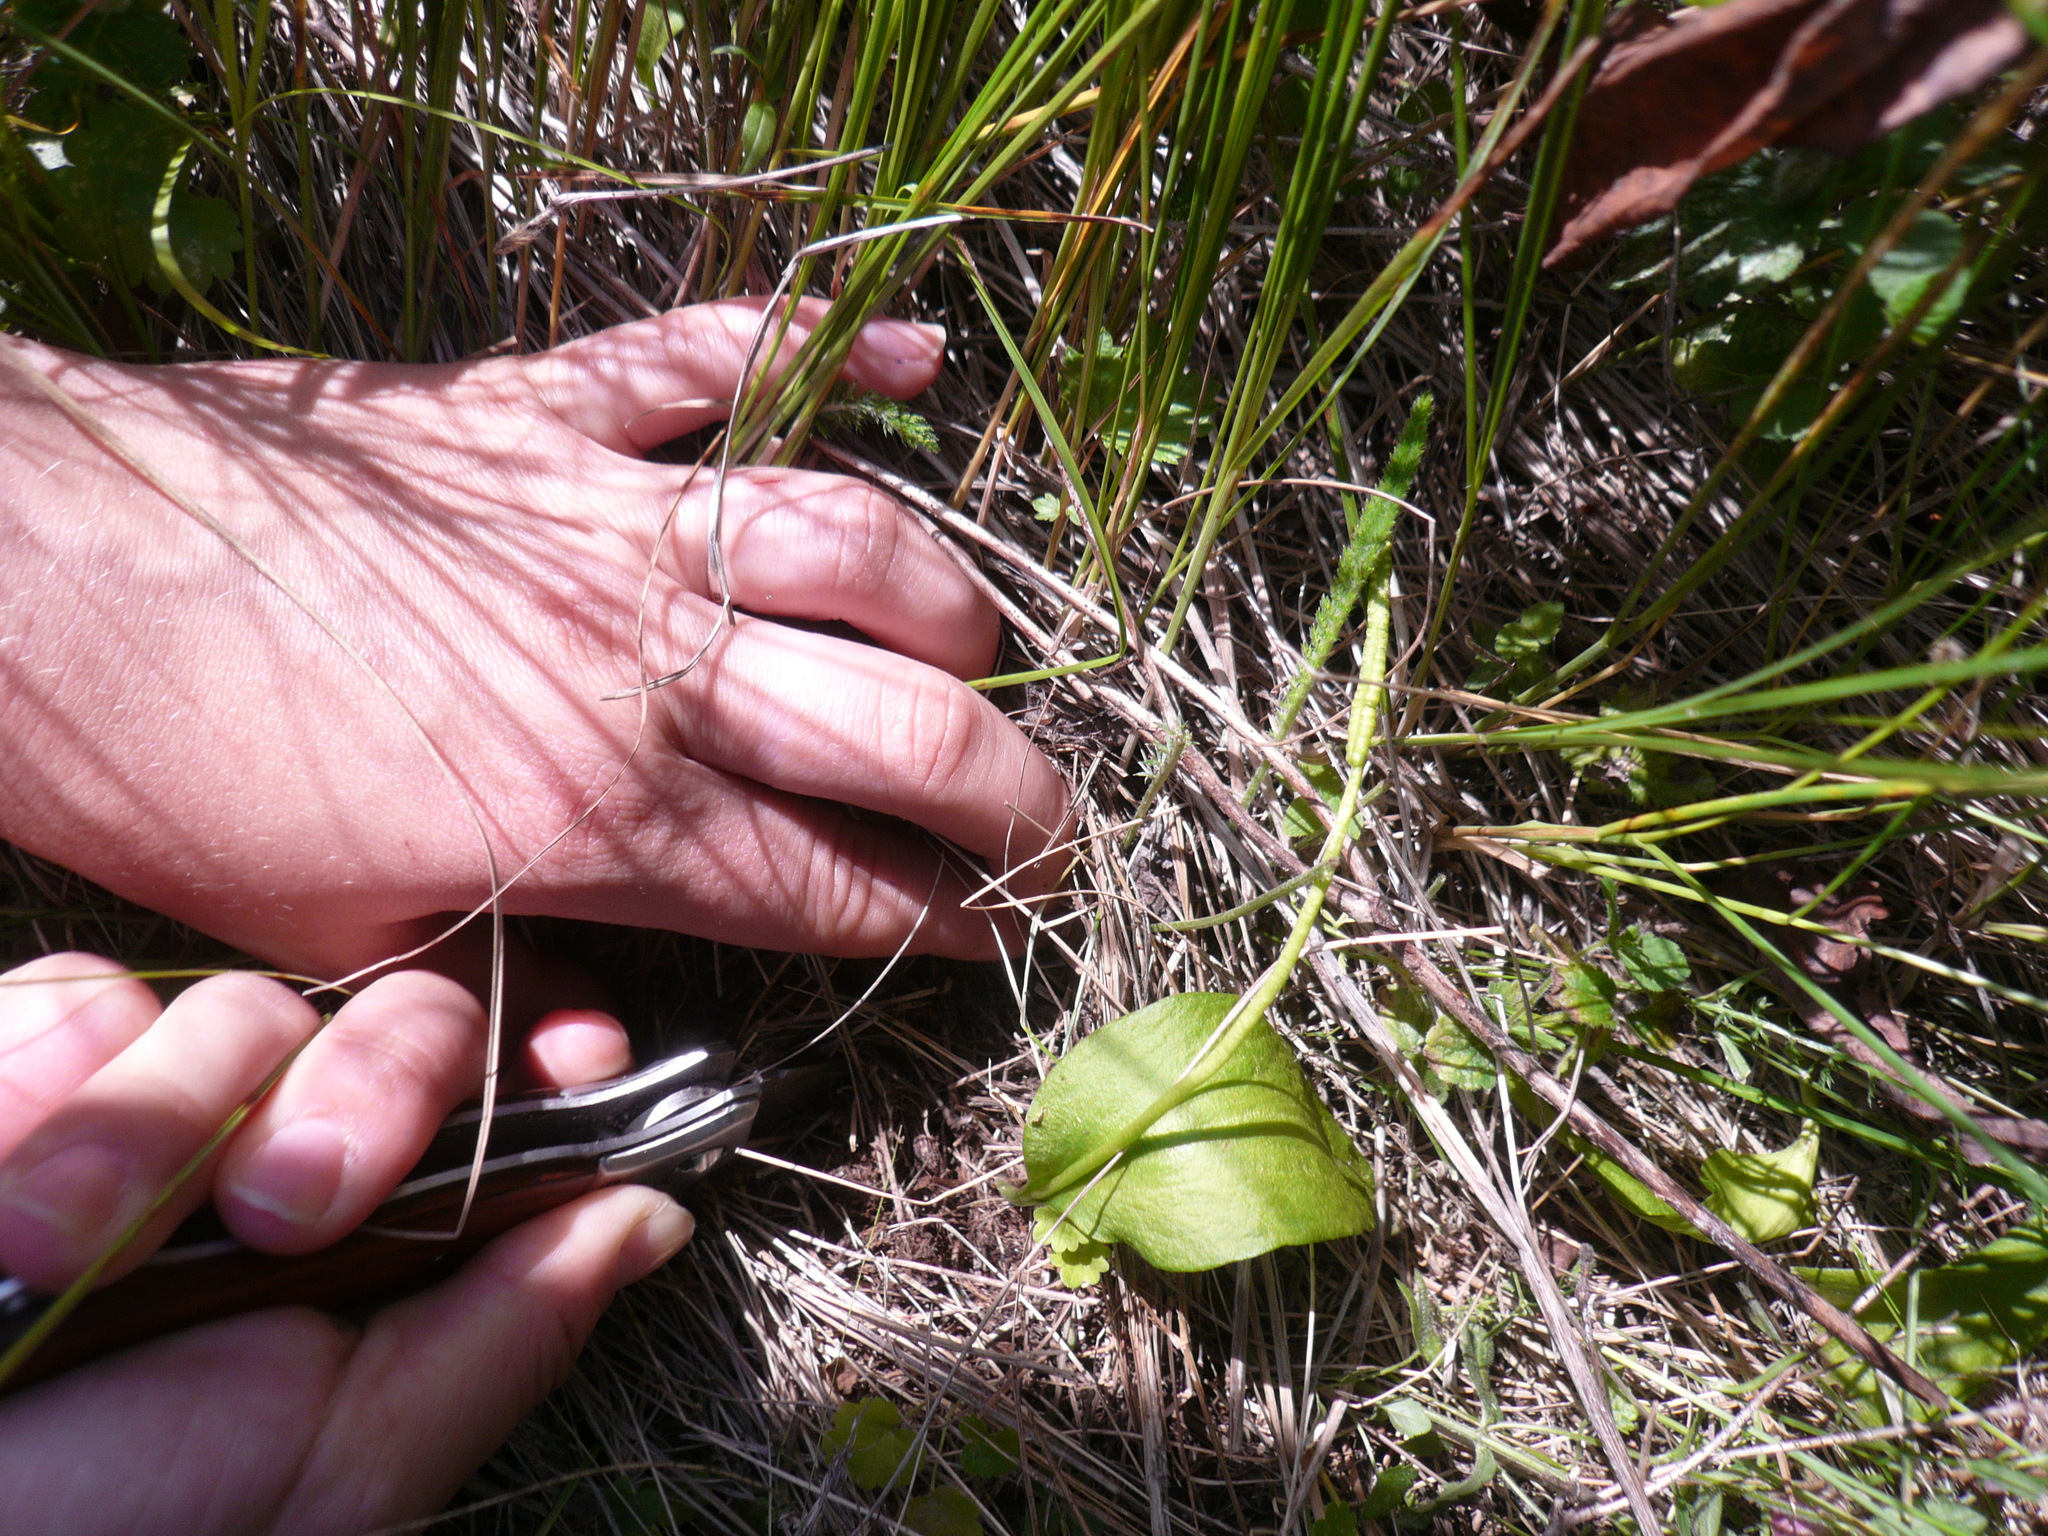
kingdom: Plantae
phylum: Tracheophyta
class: Polypodiopsida
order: Ophioglossales
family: Ophioglossaceae
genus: Ophioglossum
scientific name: Ophioglossum vulgatum
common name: Adder's-tongue
